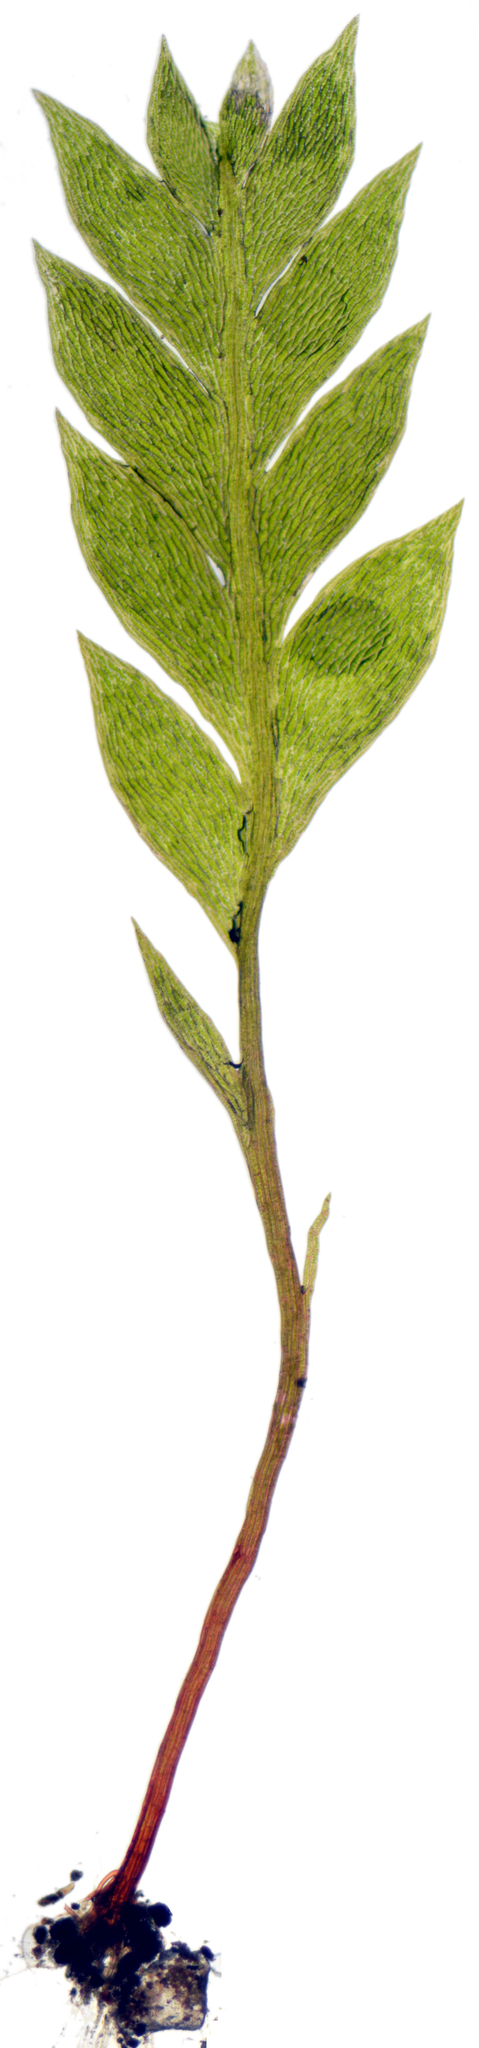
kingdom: Plantae
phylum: Bryophyta
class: Bryopsida
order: Dicranales
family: Schistostegaceae
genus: Schistostega
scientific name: Schistostega pennata
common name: Luminous moss
